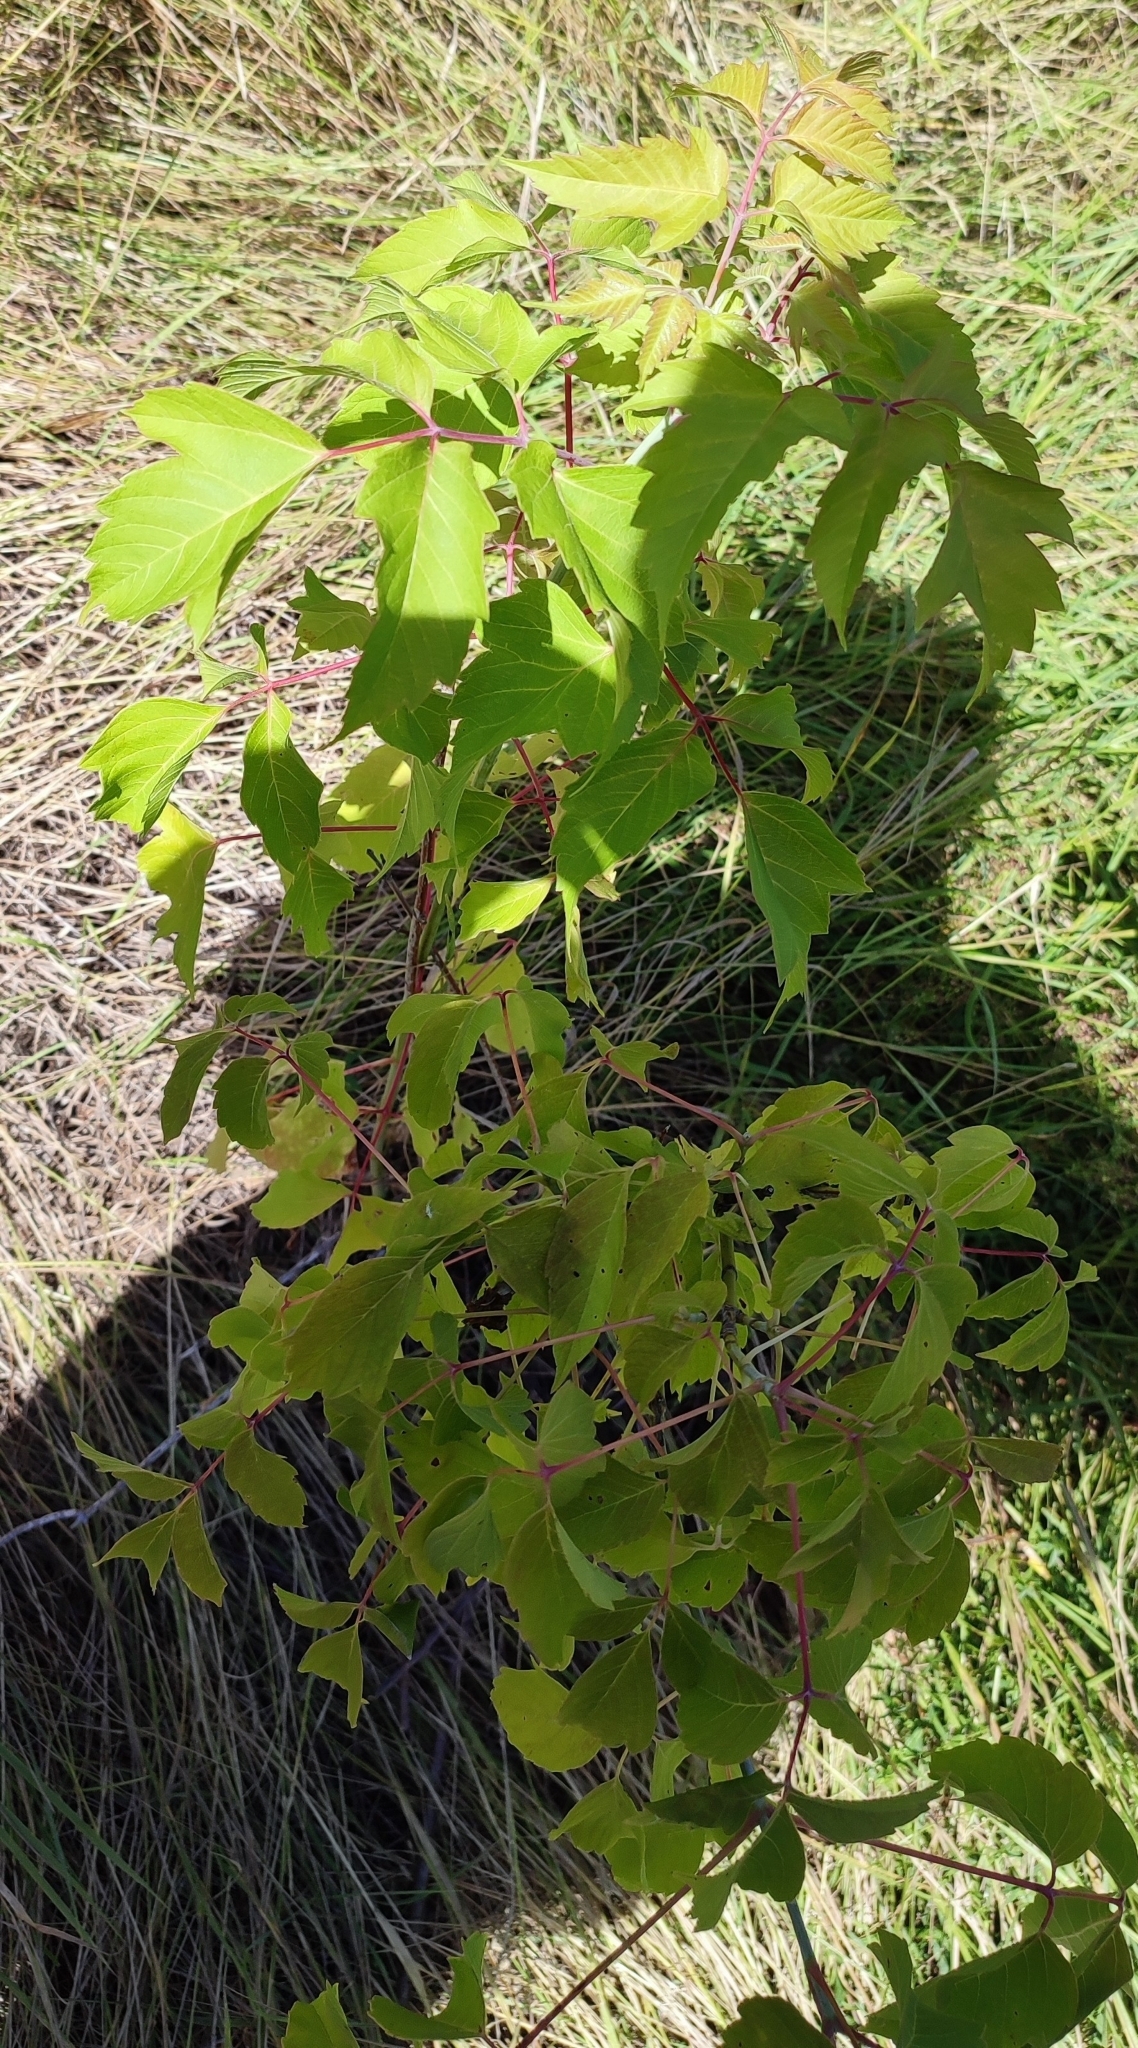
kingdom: Plantae
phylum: Tracheophyta
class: Magnoliopsida
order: Sapindales
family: Sapindaceae
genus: Acer
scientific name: Acer negundo
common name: Ashleaf maple
